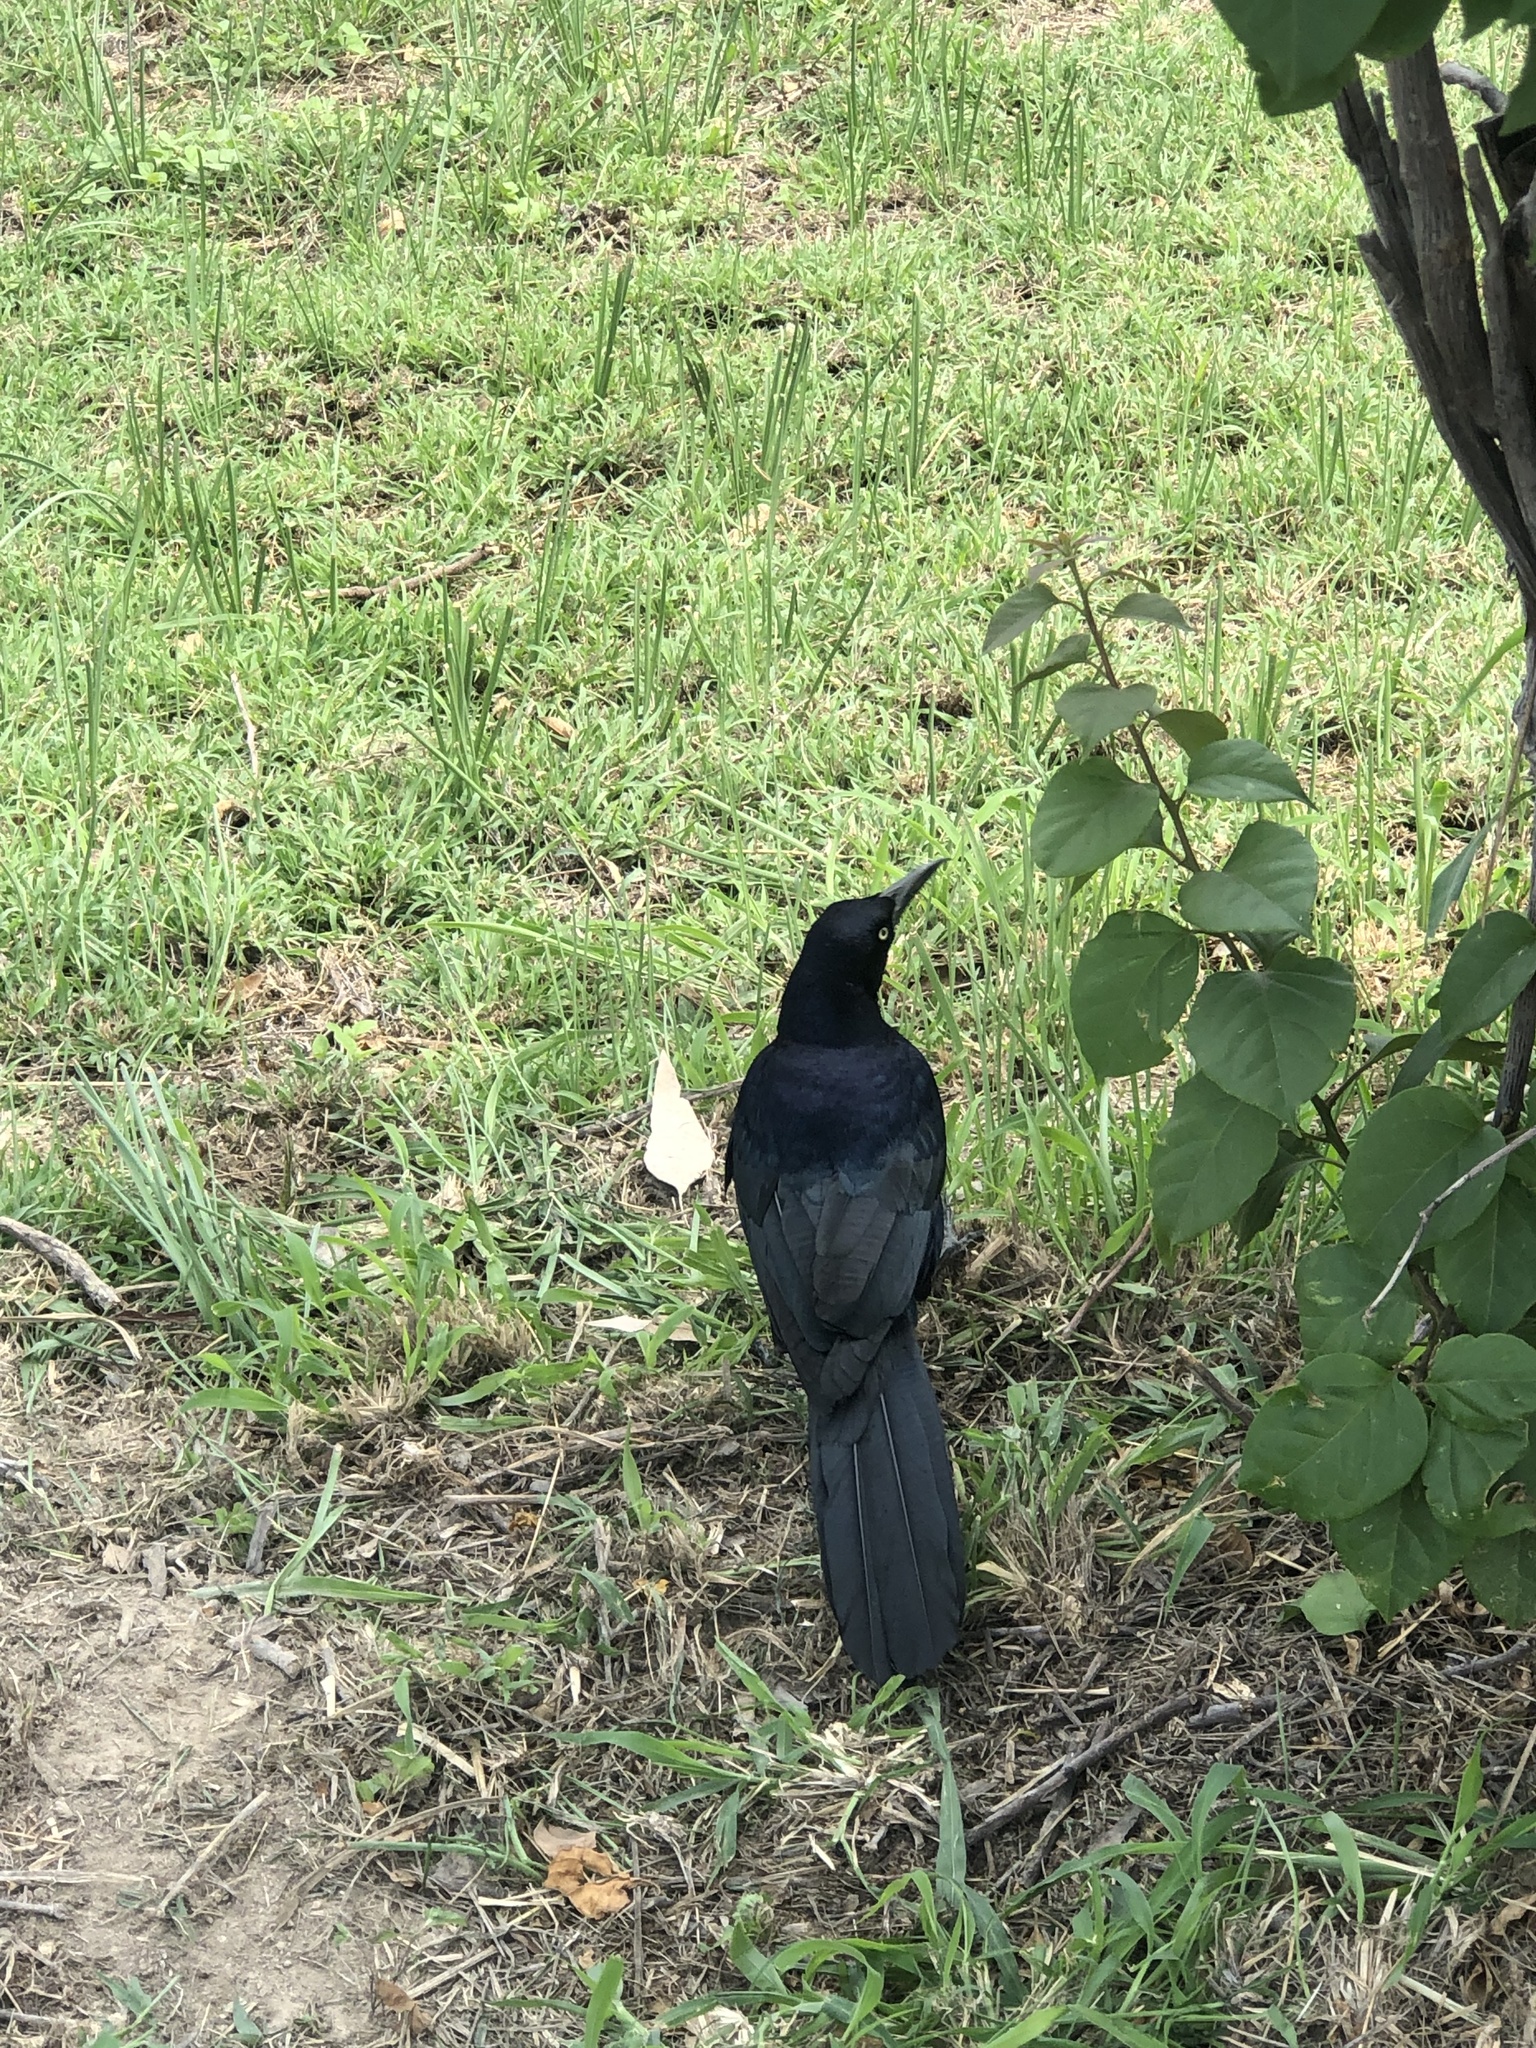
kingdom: Animalia
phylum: Chordata
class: Aves
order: Passeriformes
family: Icteridae
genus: Quiscalus
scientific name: Quiscalus mexicanus
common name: Great-tailed grackle
